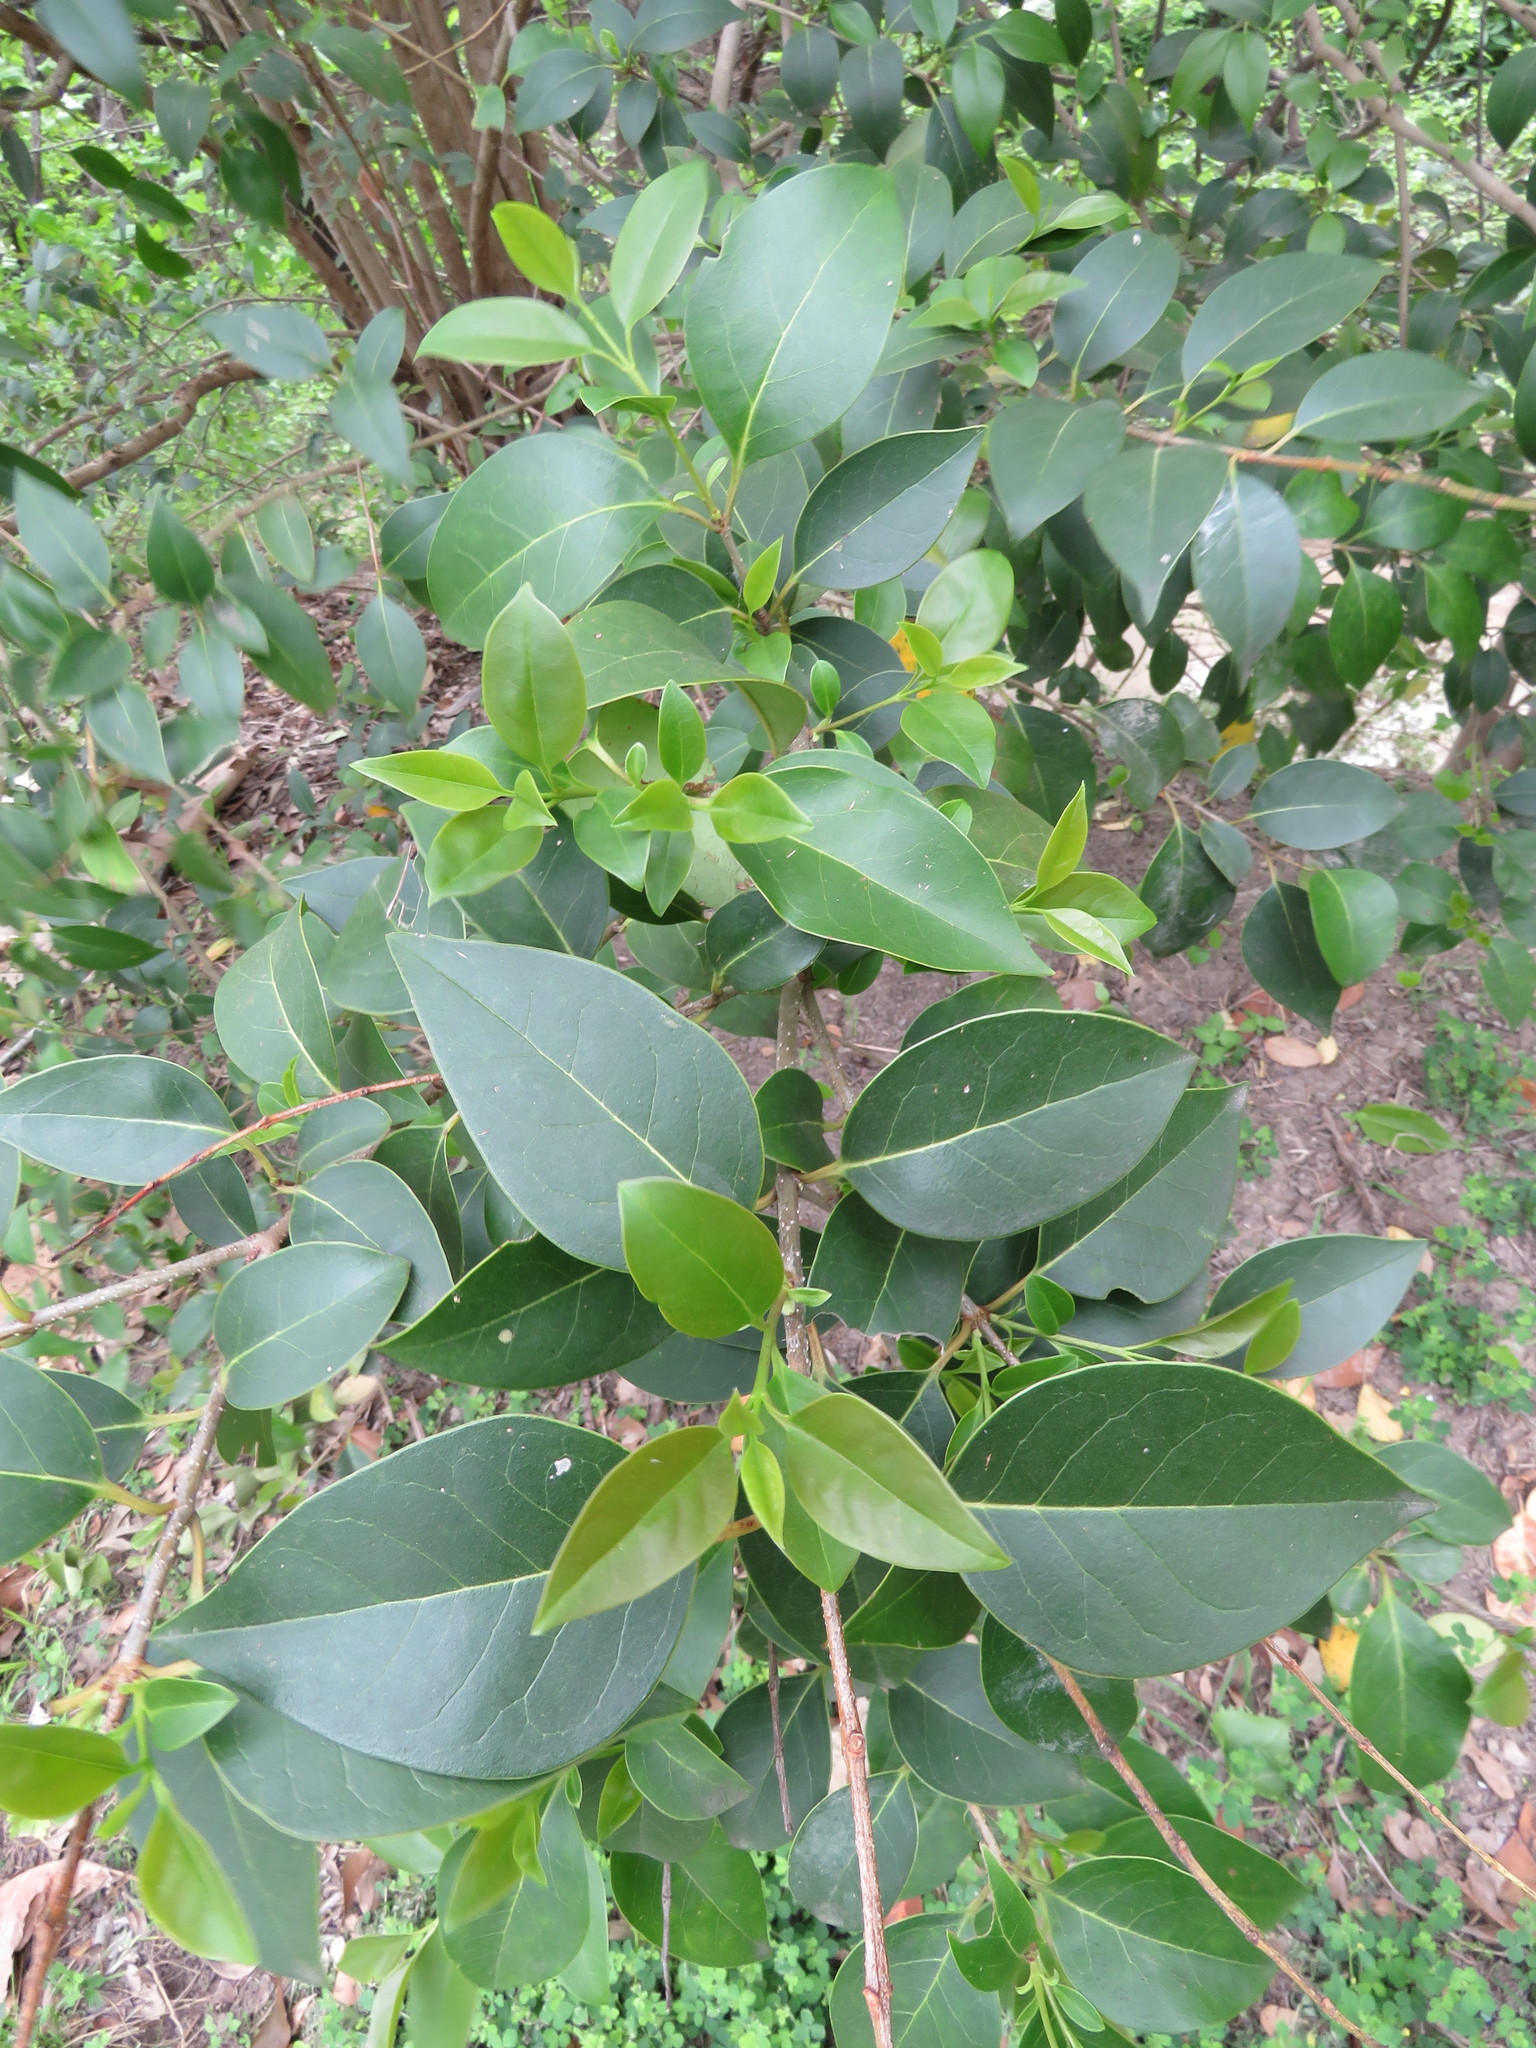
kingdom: Plantae
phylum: Tracheophyta
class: Magnoliopsida
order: Lamiales
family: Oleaceae
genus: Ligustrum
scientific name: Ligustrum lucidum
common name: Glossy privet
